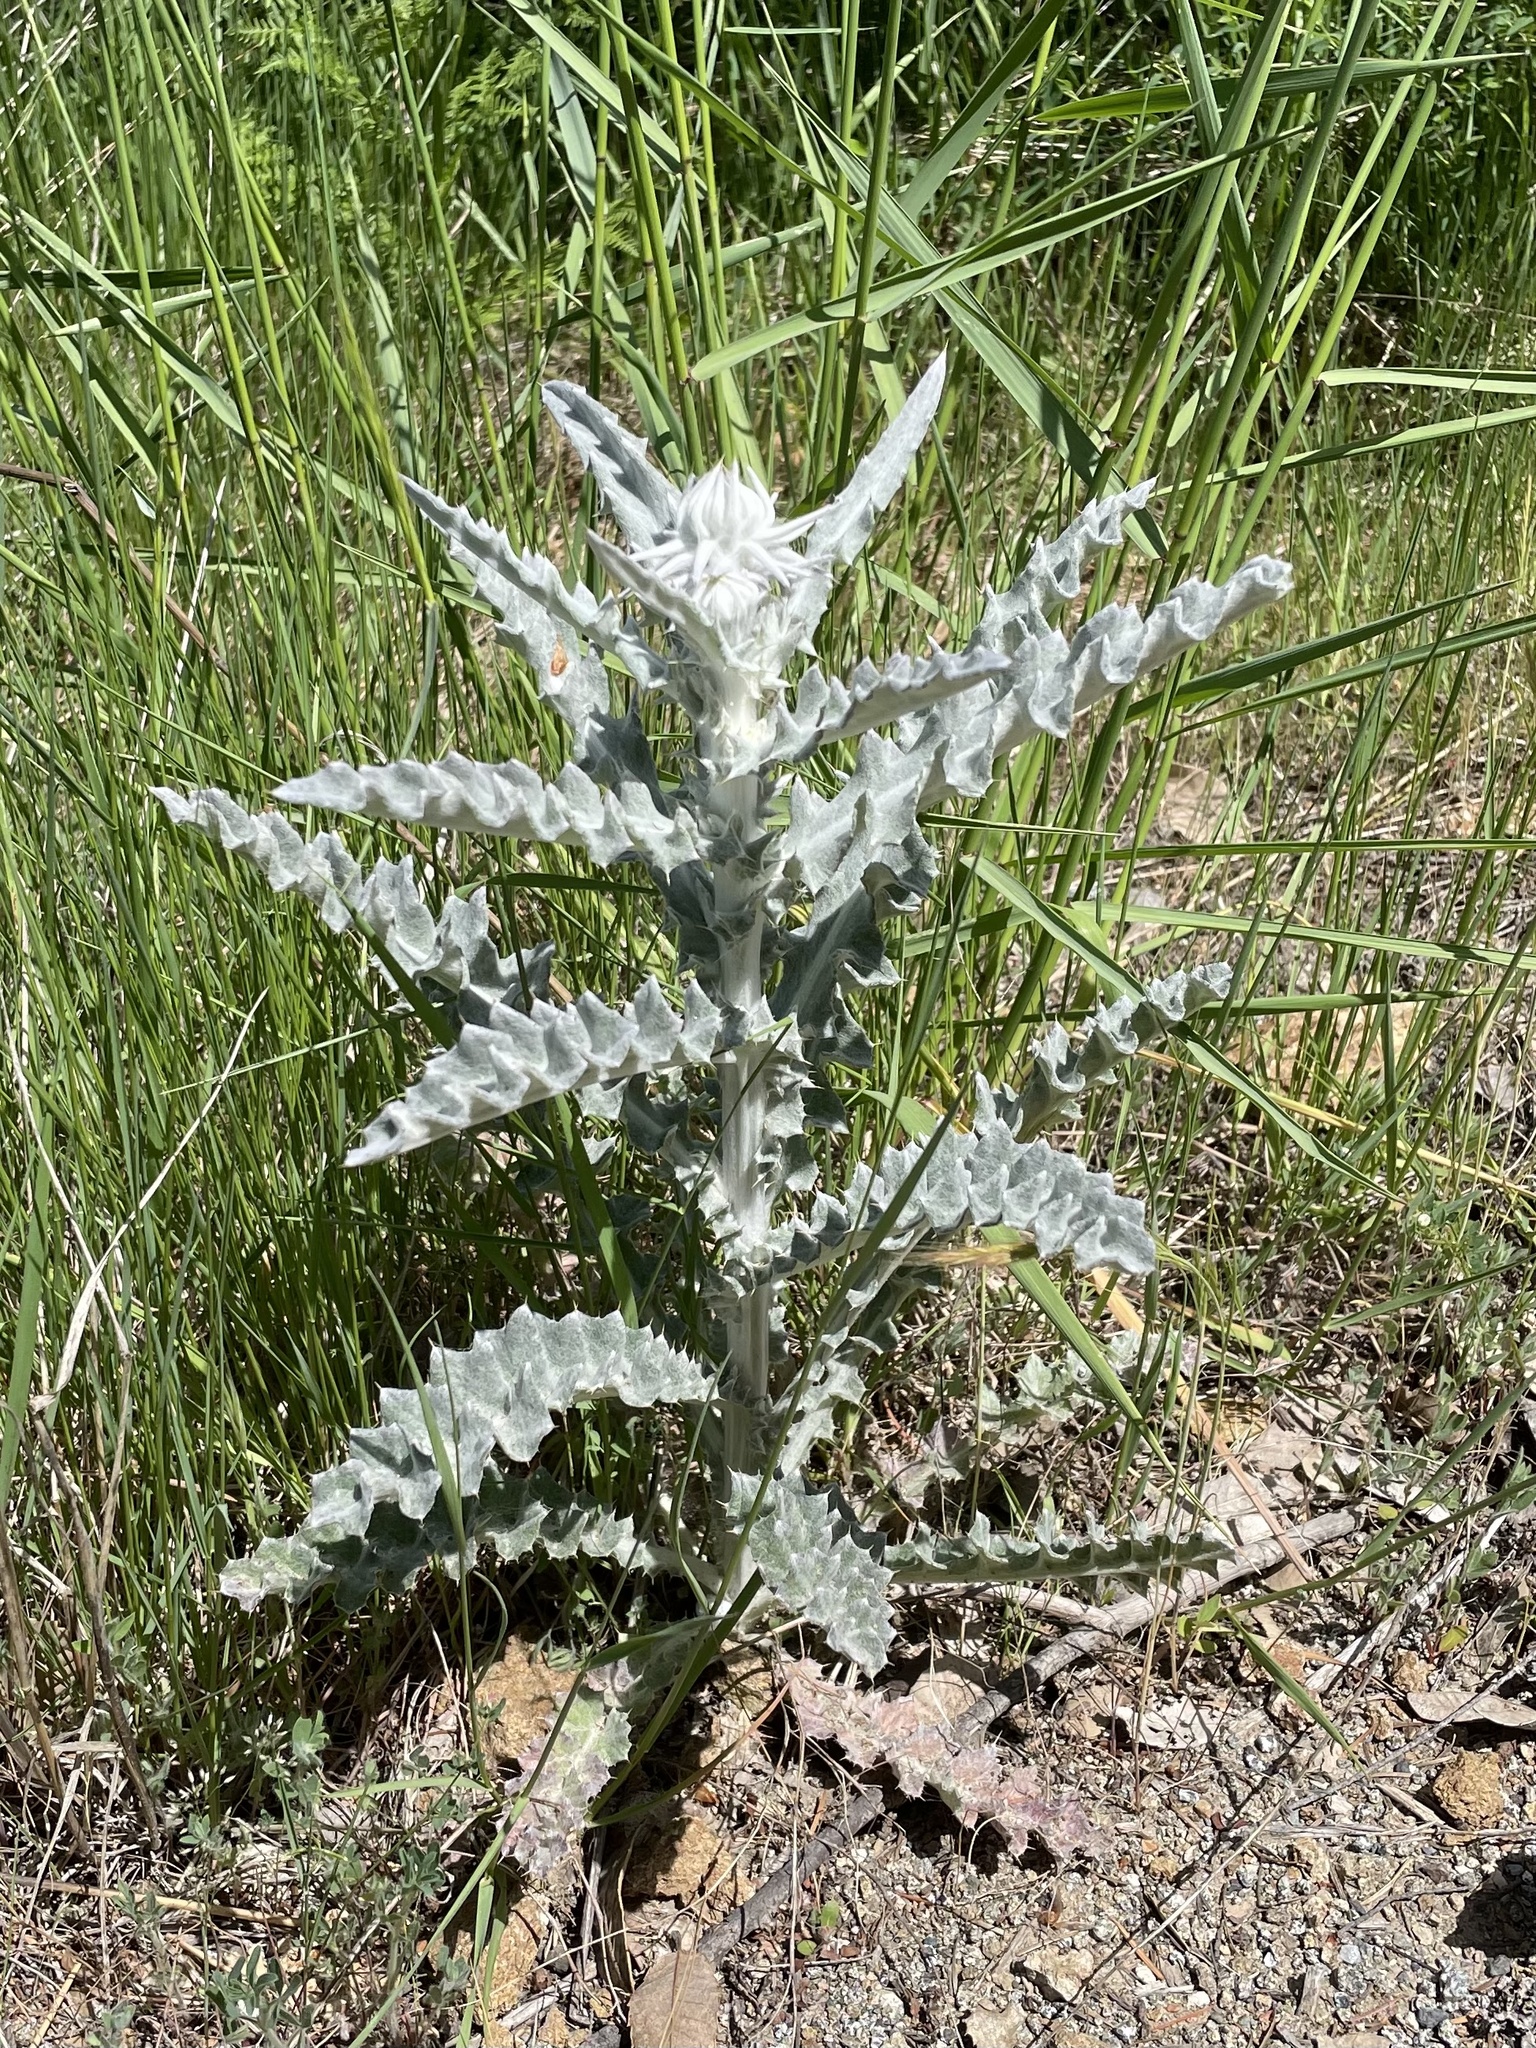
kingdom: Plantae
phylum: Tracheophyta
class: Magnoliopsida
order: Asterales
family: Asteraceae
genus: Cirsium
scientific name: Cirsium occidentale
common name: Western thistle
